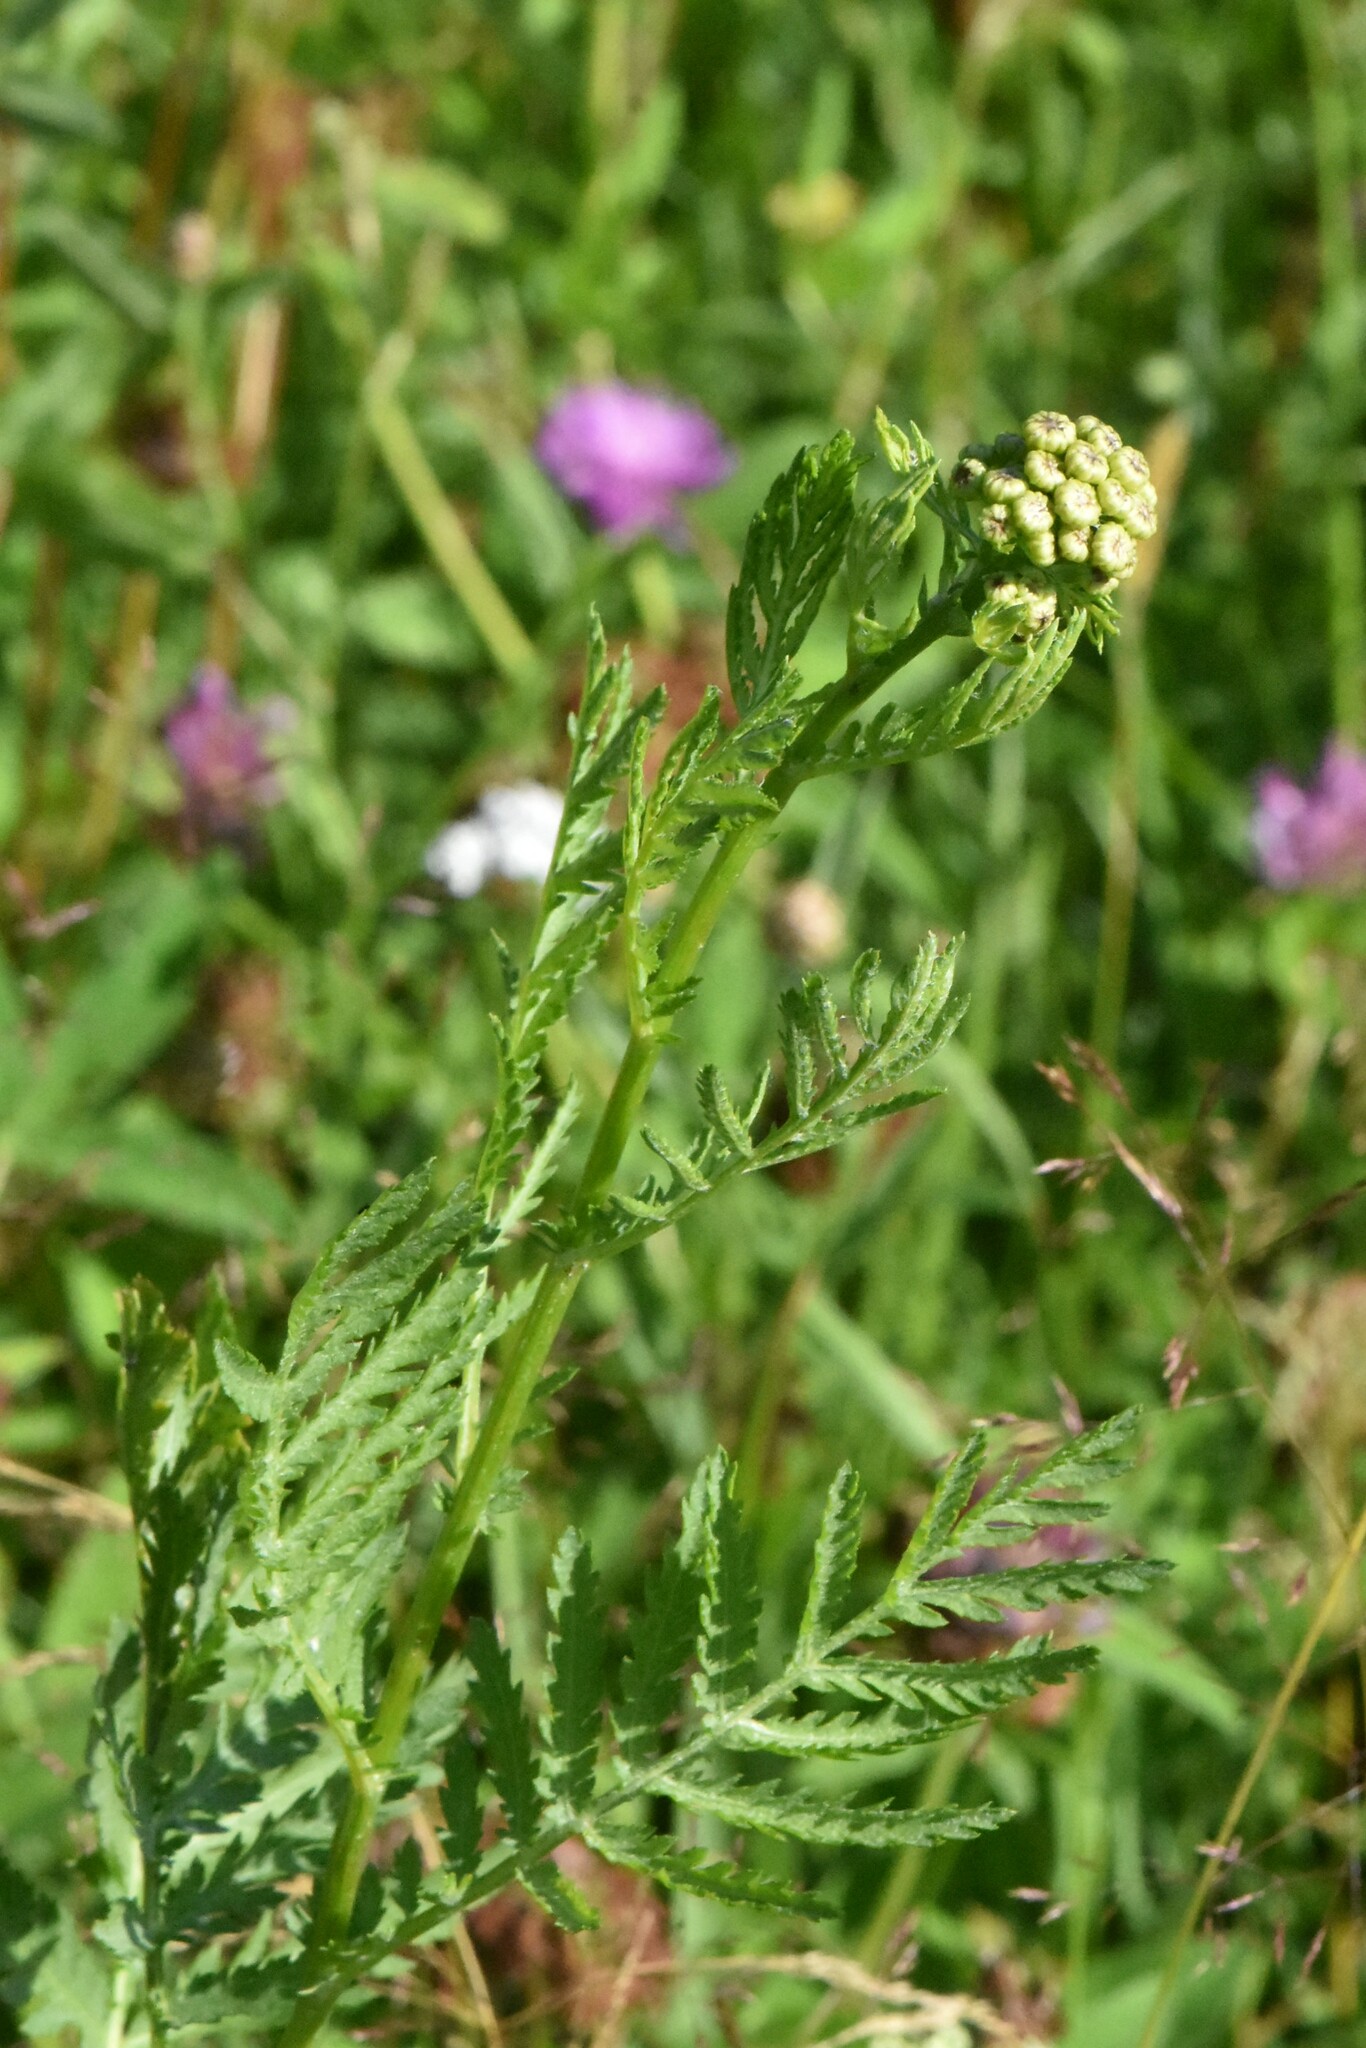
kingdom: Plantae
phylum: Tracheophyta
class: Magnoliopsida
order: Asterales
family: Asteraceae
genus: Tanacetum
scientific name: Tanacetum vulgare
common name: Common tansy
